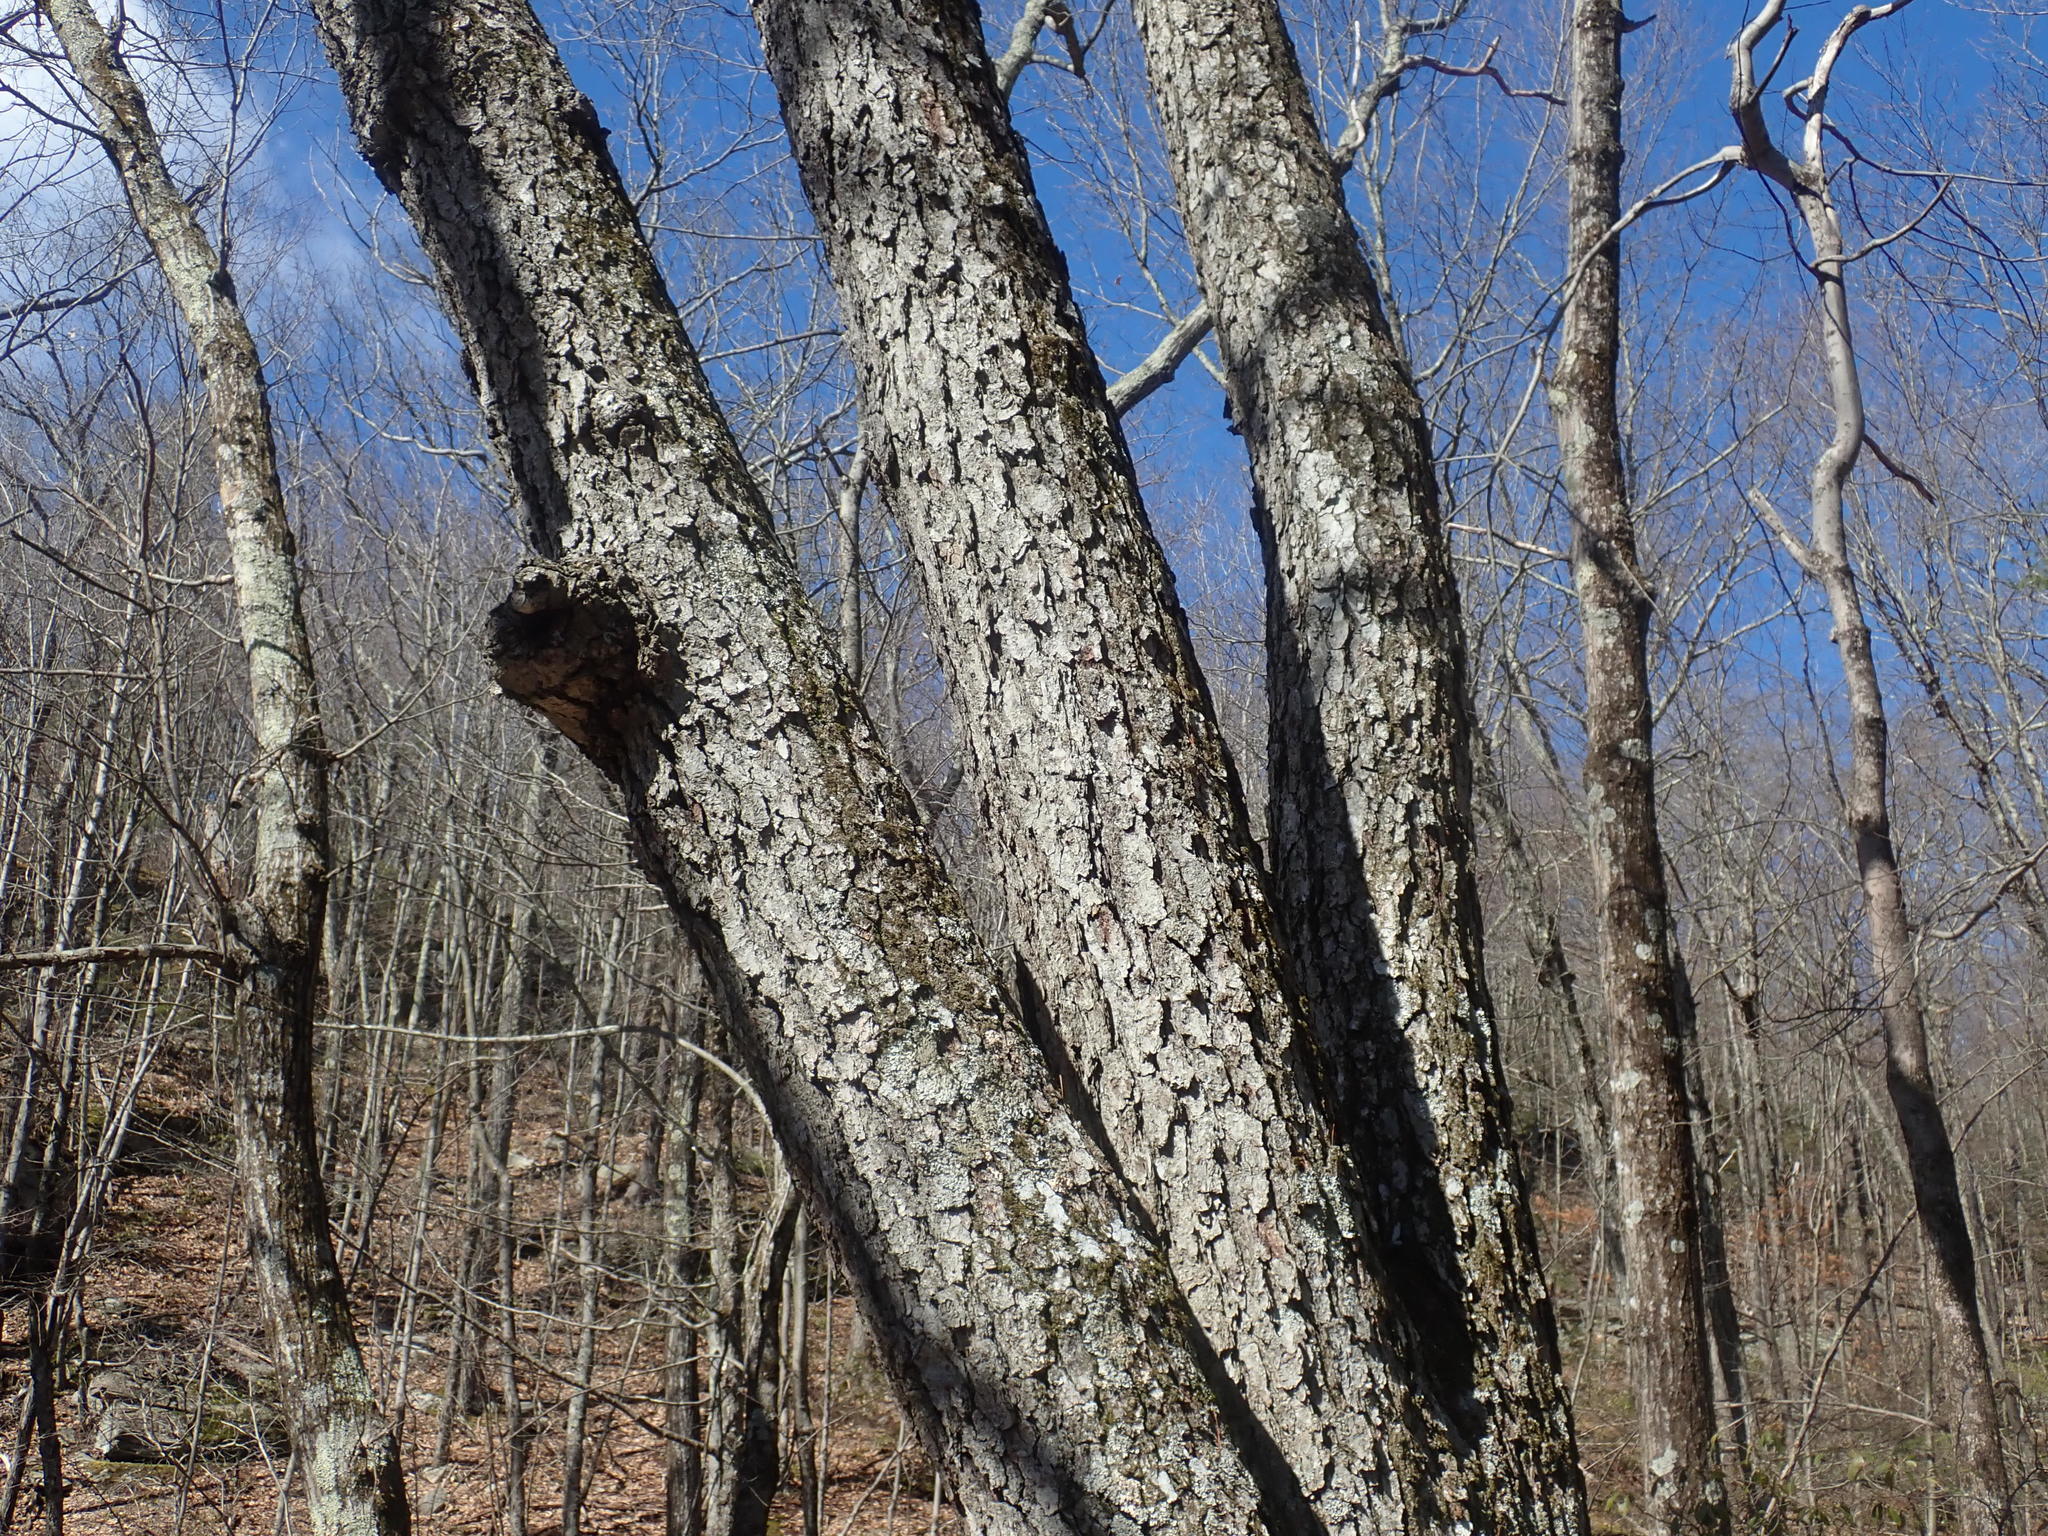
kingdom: Plantae
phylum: Tracheophyta
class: Magnoliopsida
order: Rosales
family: Rosaceae
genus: Prunus
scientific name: Prunus serotina
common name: Black cherry
